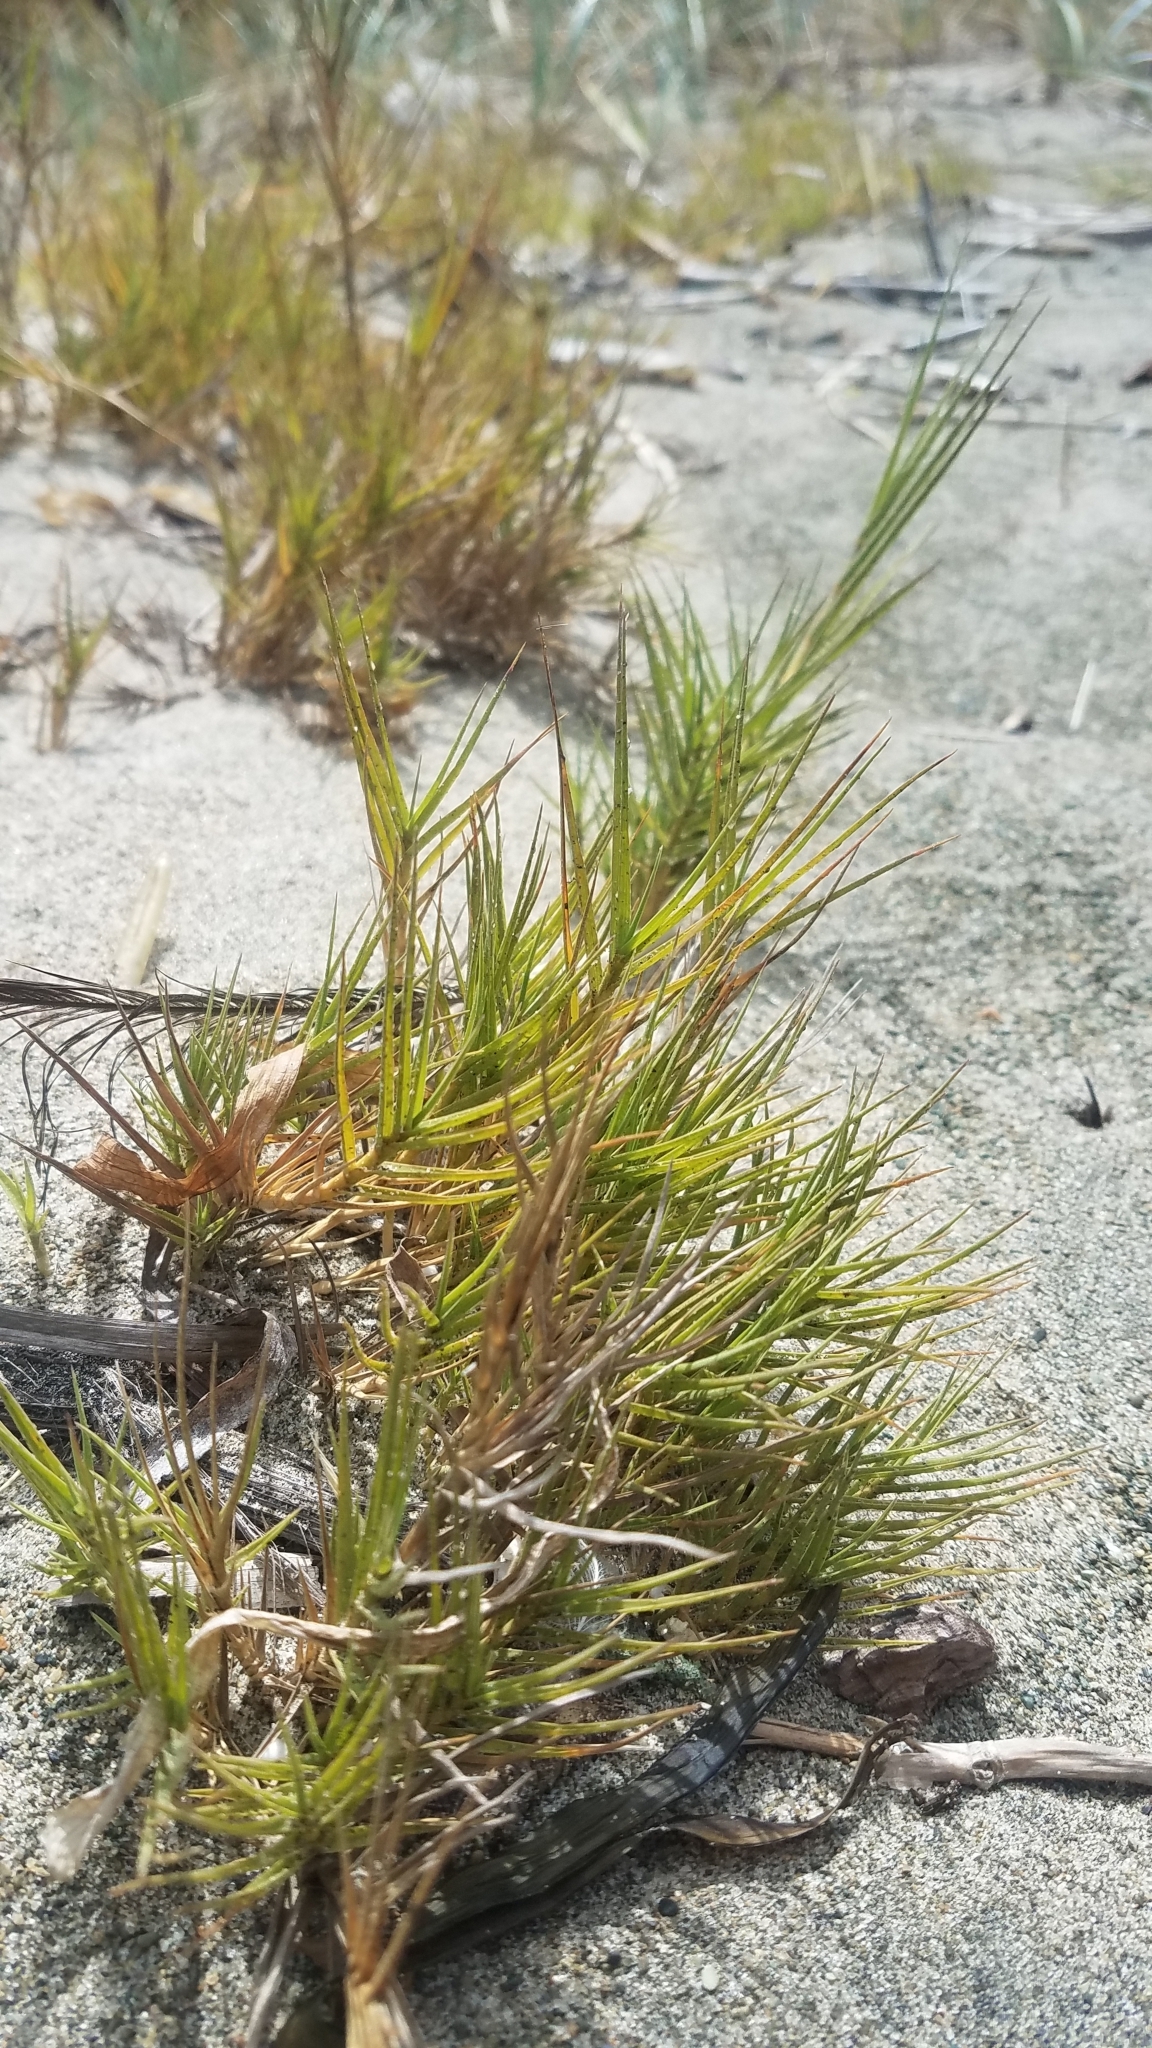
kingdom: Plantae
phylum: Tracheophyta
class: Liliopsida
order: Poales
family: Poaceae
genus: Distichlis
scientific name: Distichlis spicata
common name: Saltgrass
